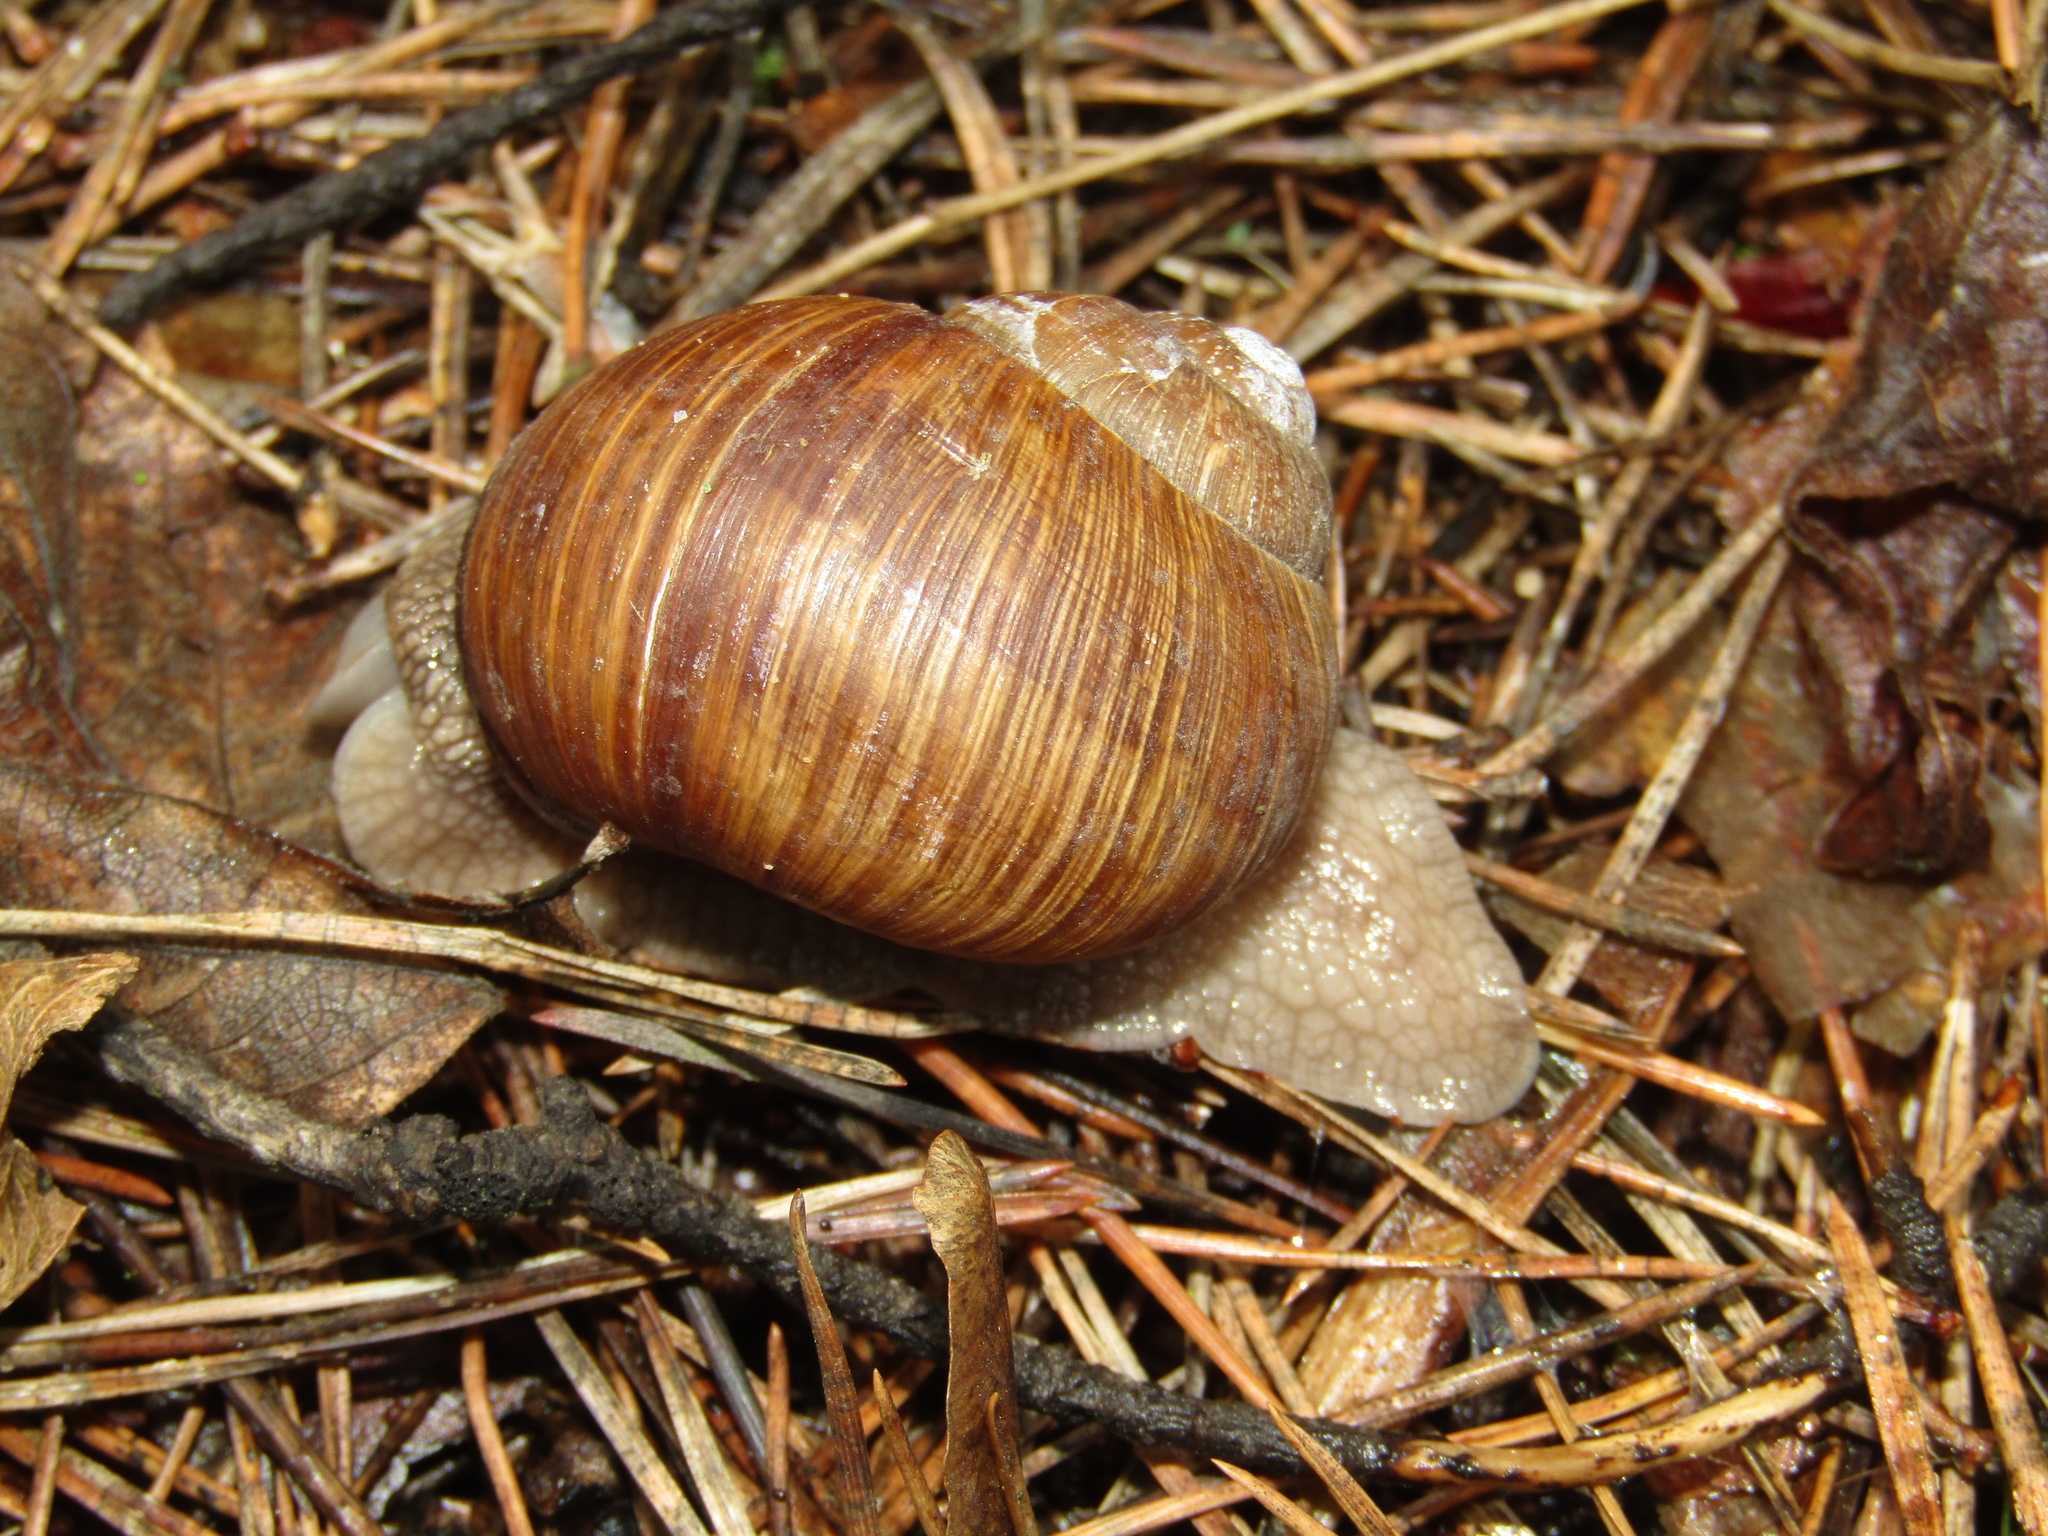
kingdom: Animalia
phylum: Mollusca
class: Gastropoda
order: Stylommatophora
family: Helicidae
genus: Helix
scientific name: Helix pomatia
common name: Roman snail
